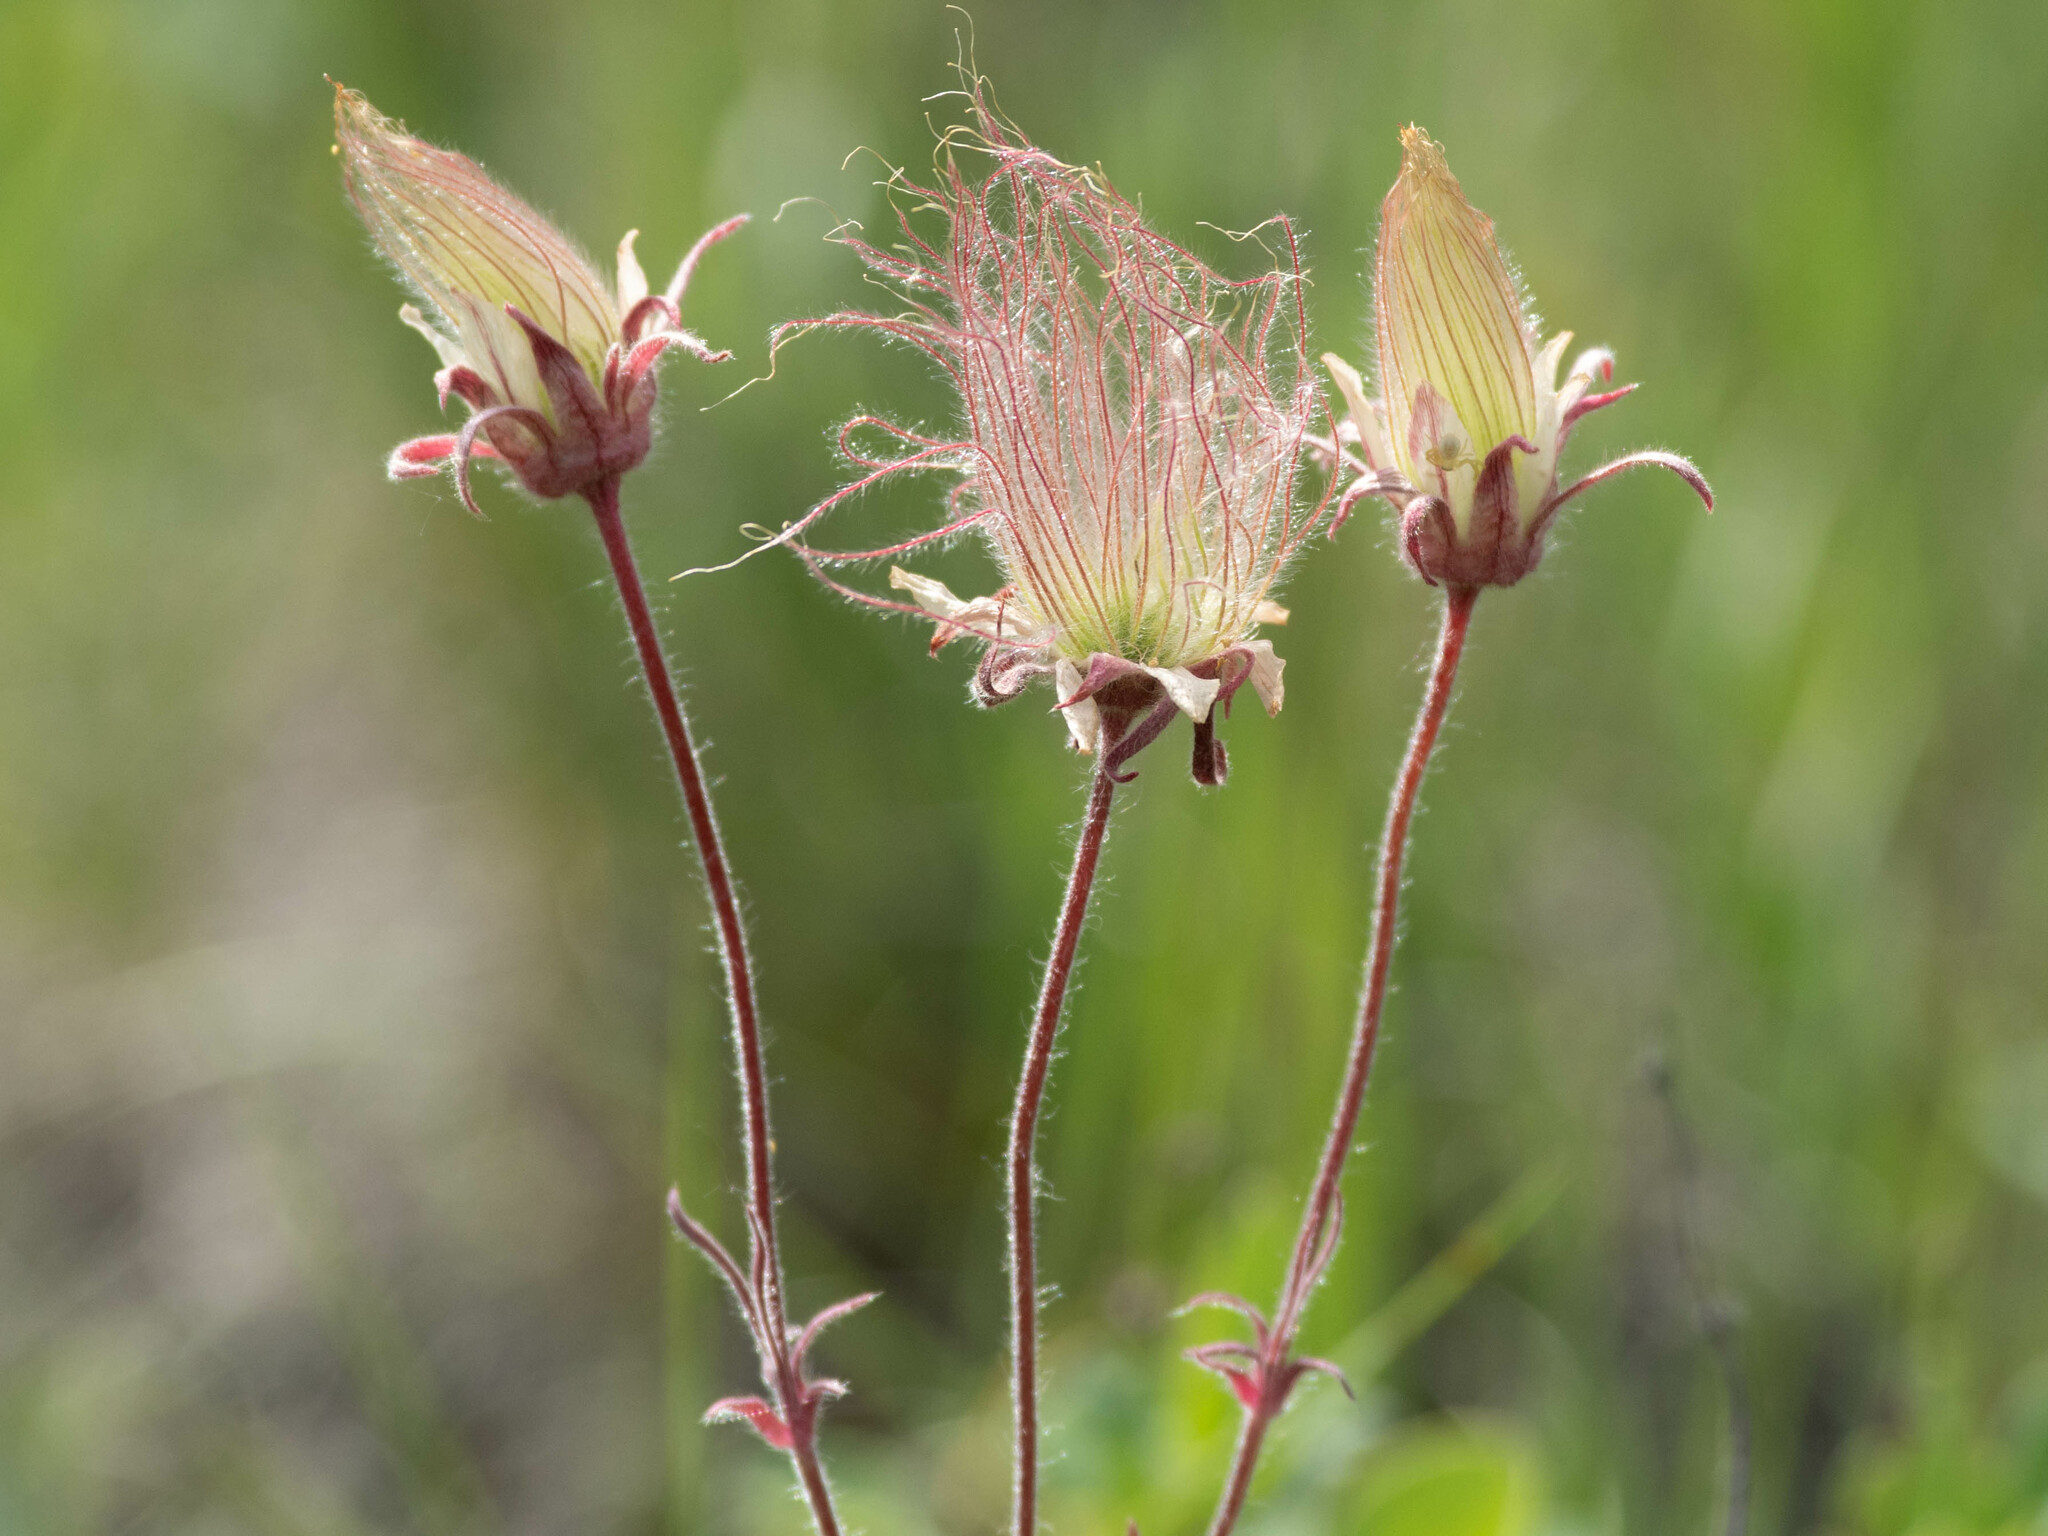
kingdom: Plantae
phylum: Tracheophyta
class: Magnoliopsida
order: Rosales
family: Rosaceae
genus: Geum
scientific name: Geum triflorum
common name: Old man's whiskers
